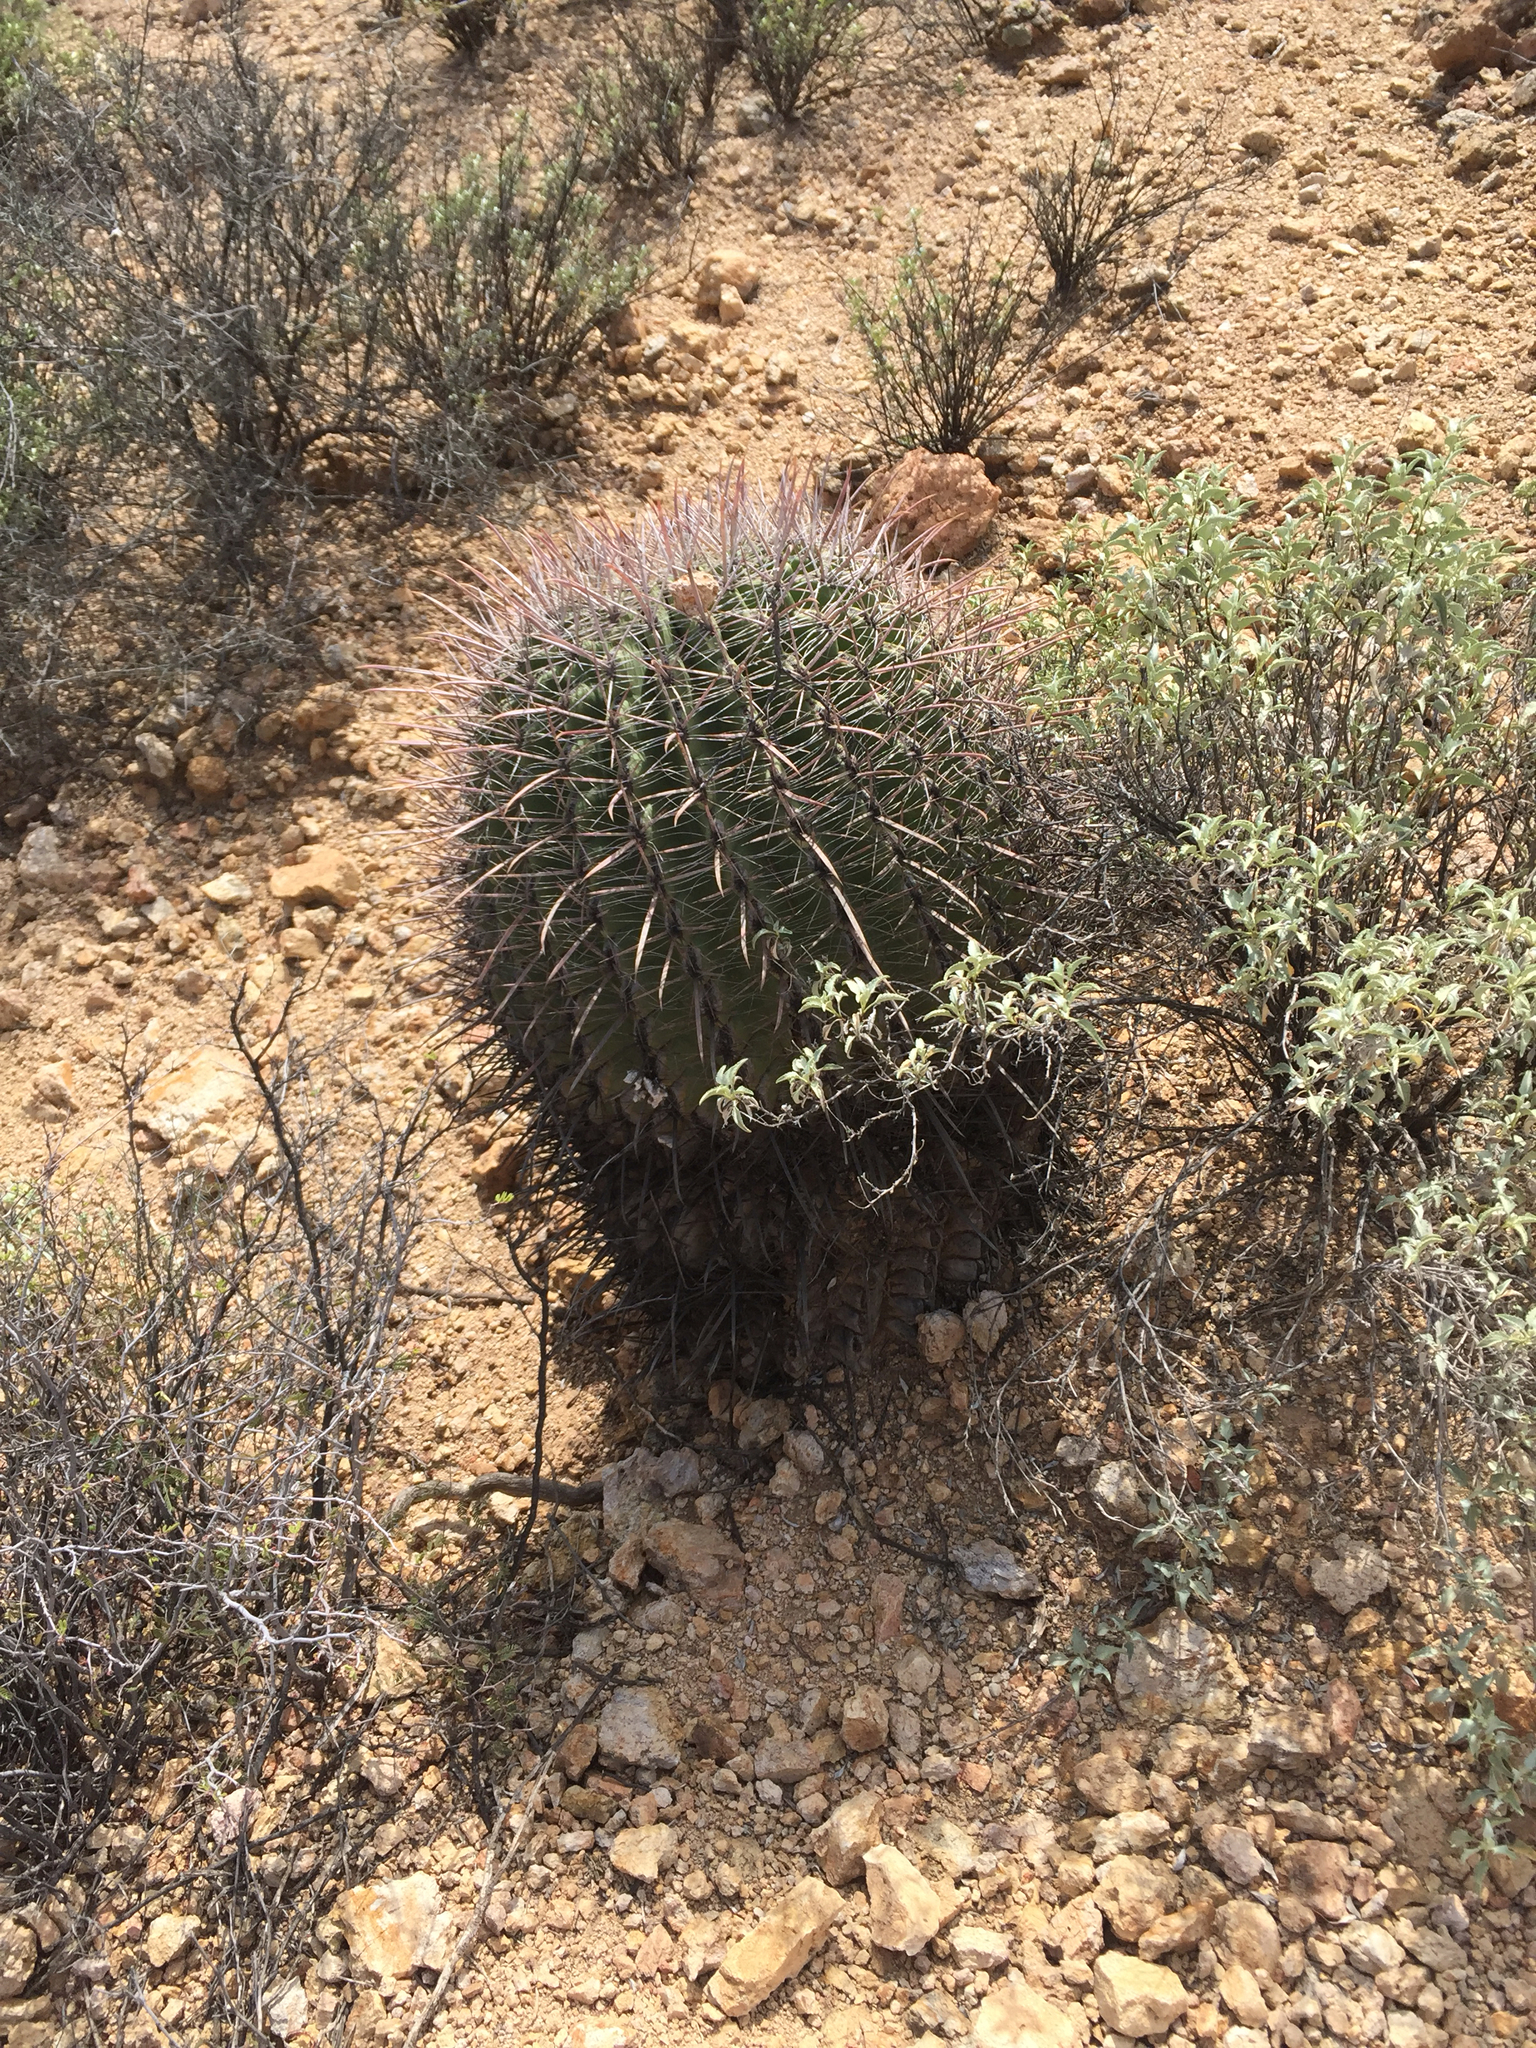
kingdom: Plantae
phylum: Tracheophyta
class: Magnoliopsida
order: Caryophyllales
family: Cactaceae
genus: Ferocactus
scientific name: Ferocactus cylindraceus
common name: California barrel cactus
